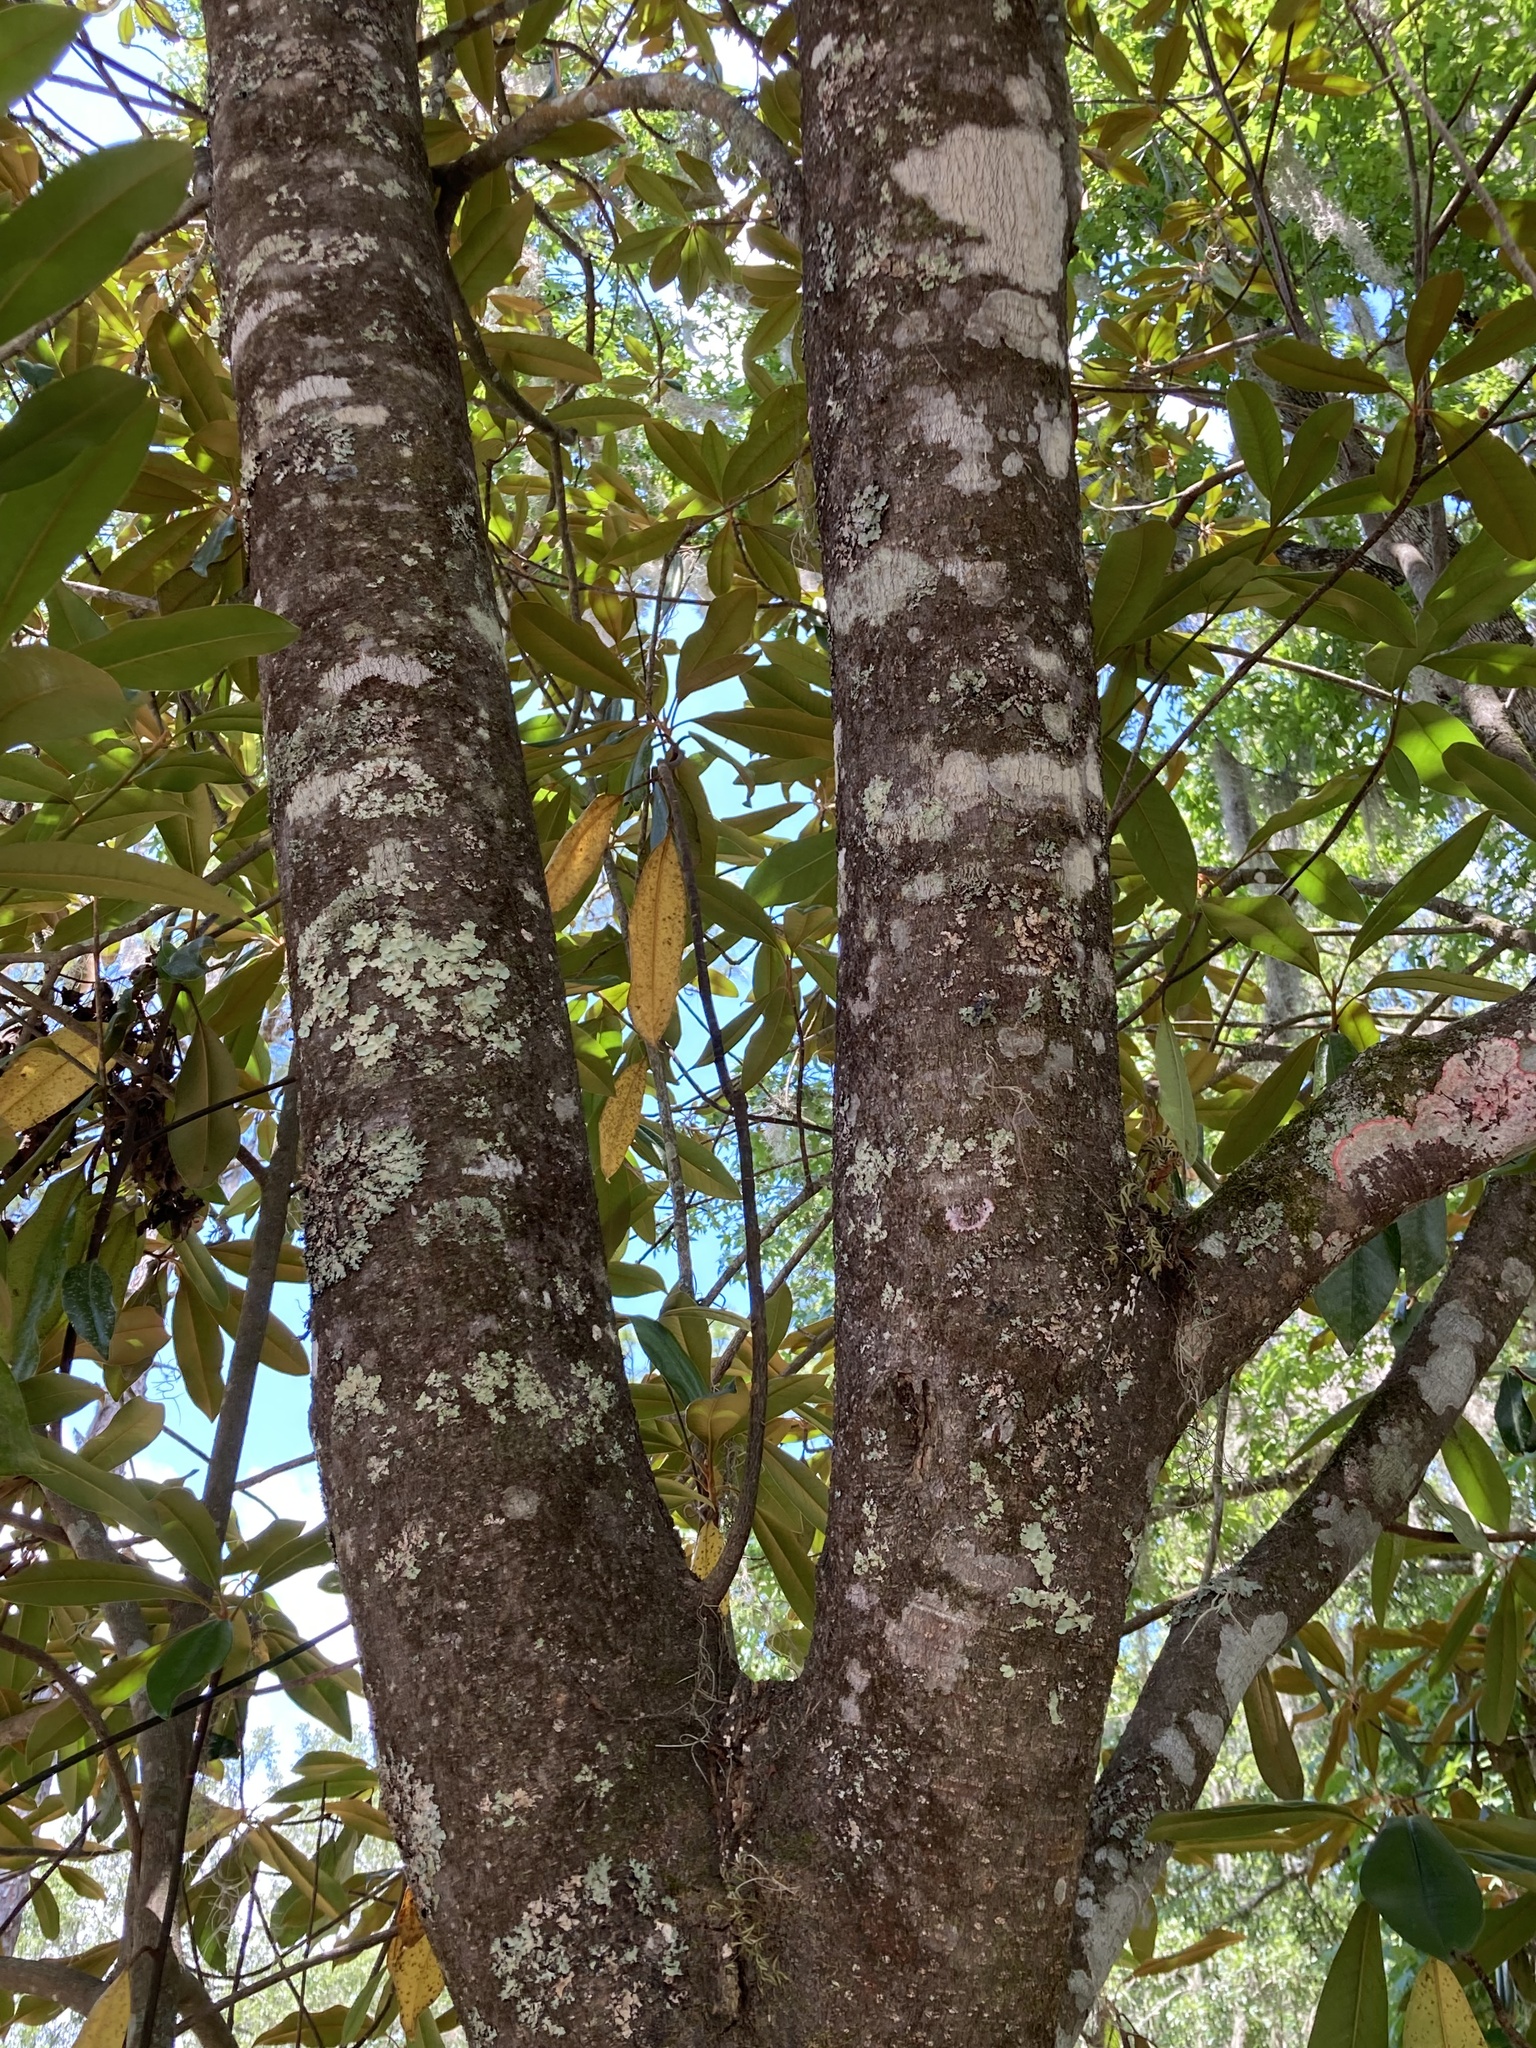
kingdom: Plantae
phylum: Tracheophyta
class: Magnoliopsida
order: Magnoliales
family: Magnoliaceae
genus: Magnolia
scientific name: Magnolia grandiflora
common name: Southern magnolia
